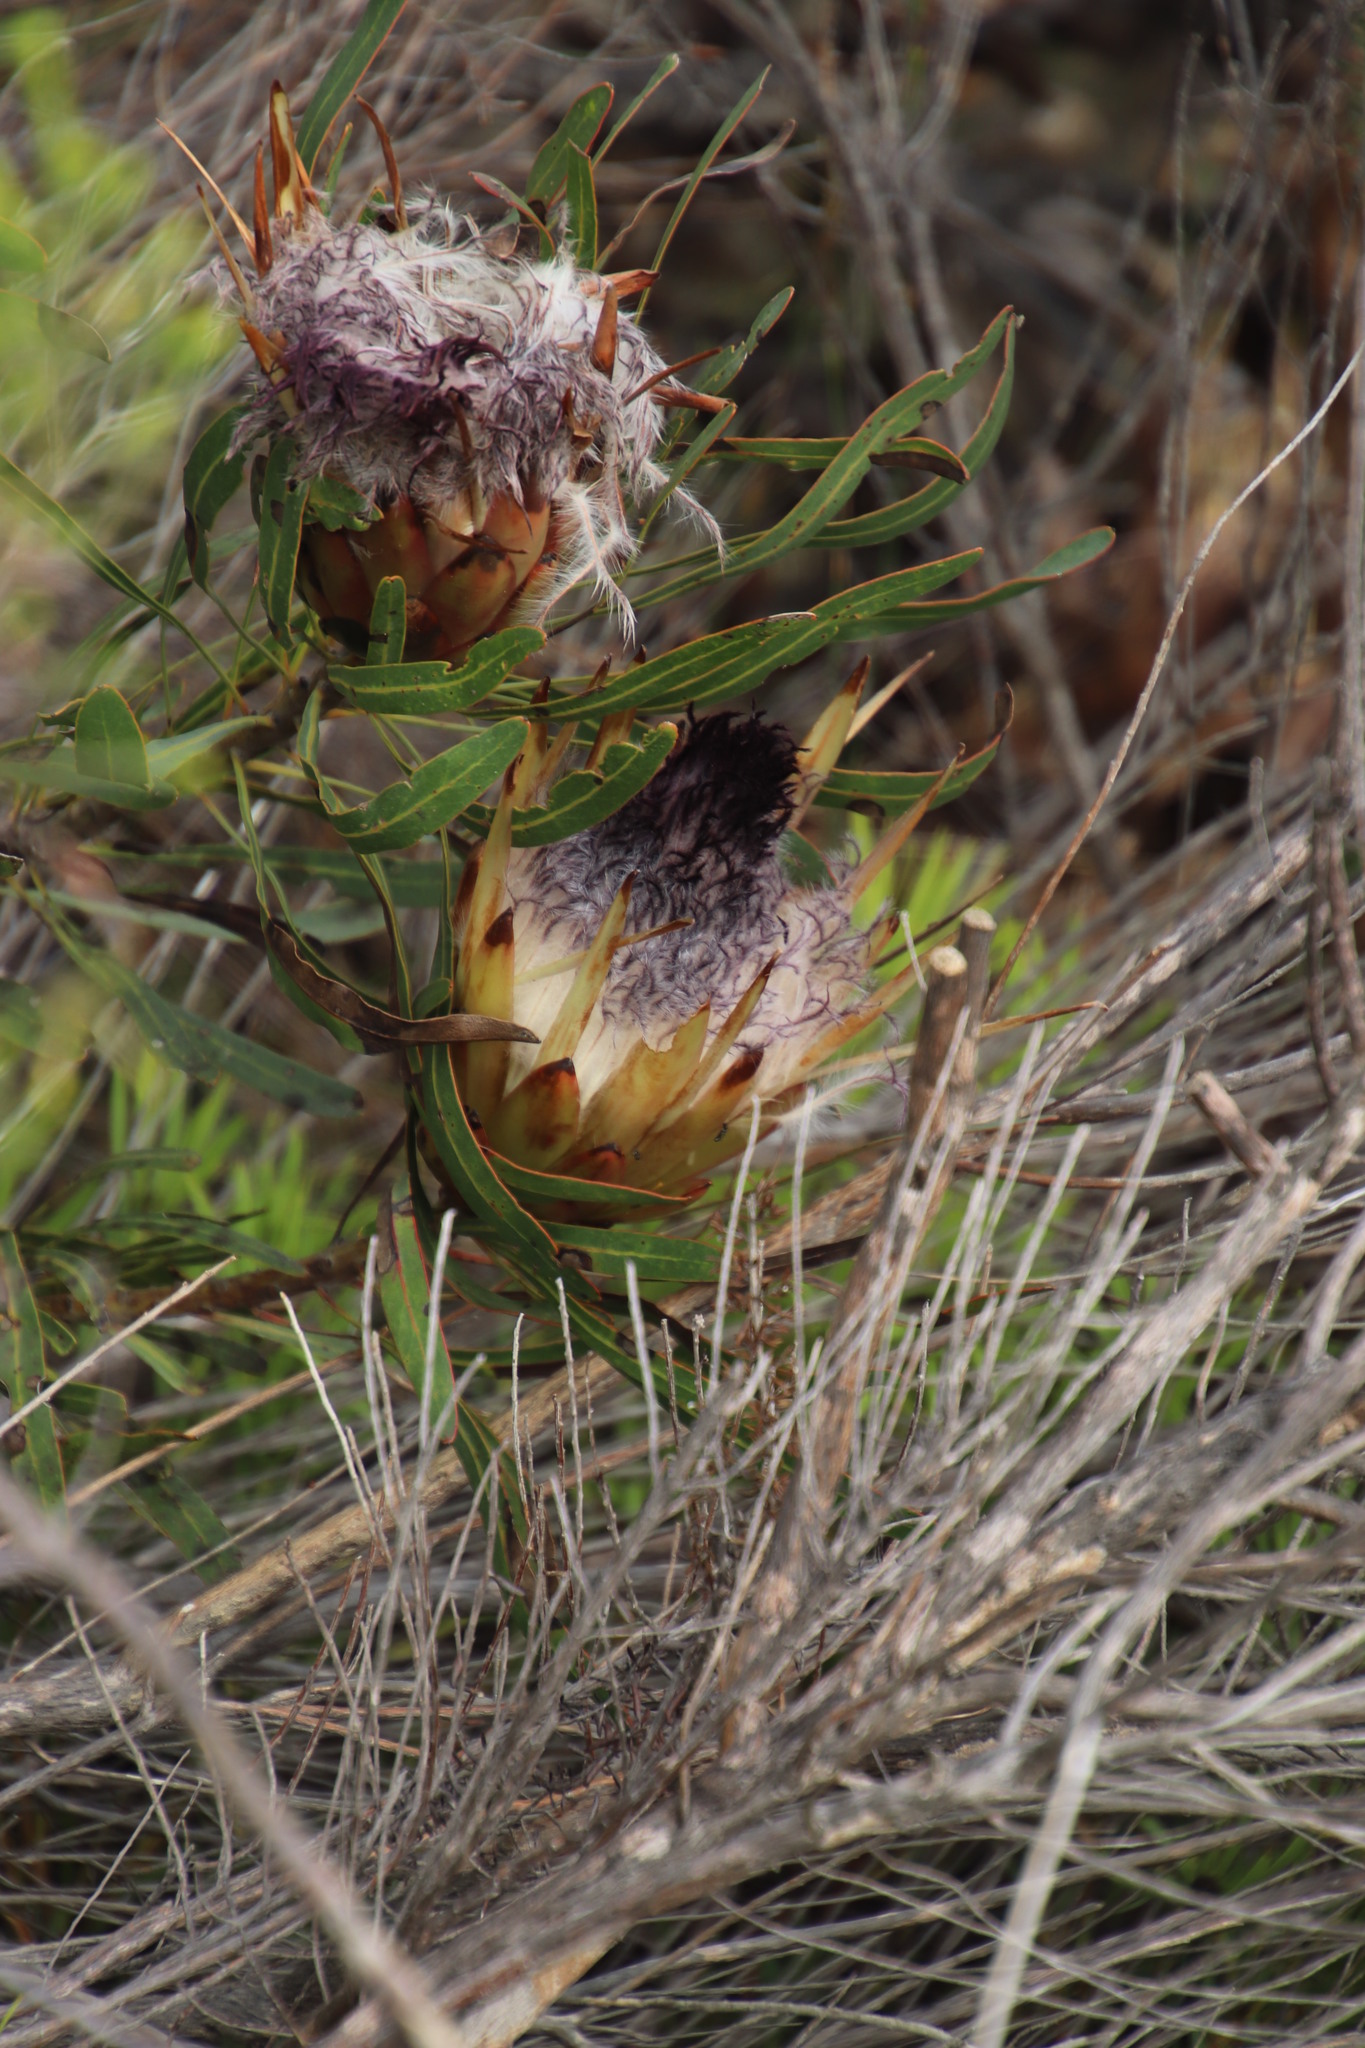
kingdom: Plantae
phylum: Tracheophyta
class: Magnoliopsida
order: Proteales
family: Proteaceae
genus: Protea
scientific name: Protea longifolia
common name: Long-leaf sugarbush
